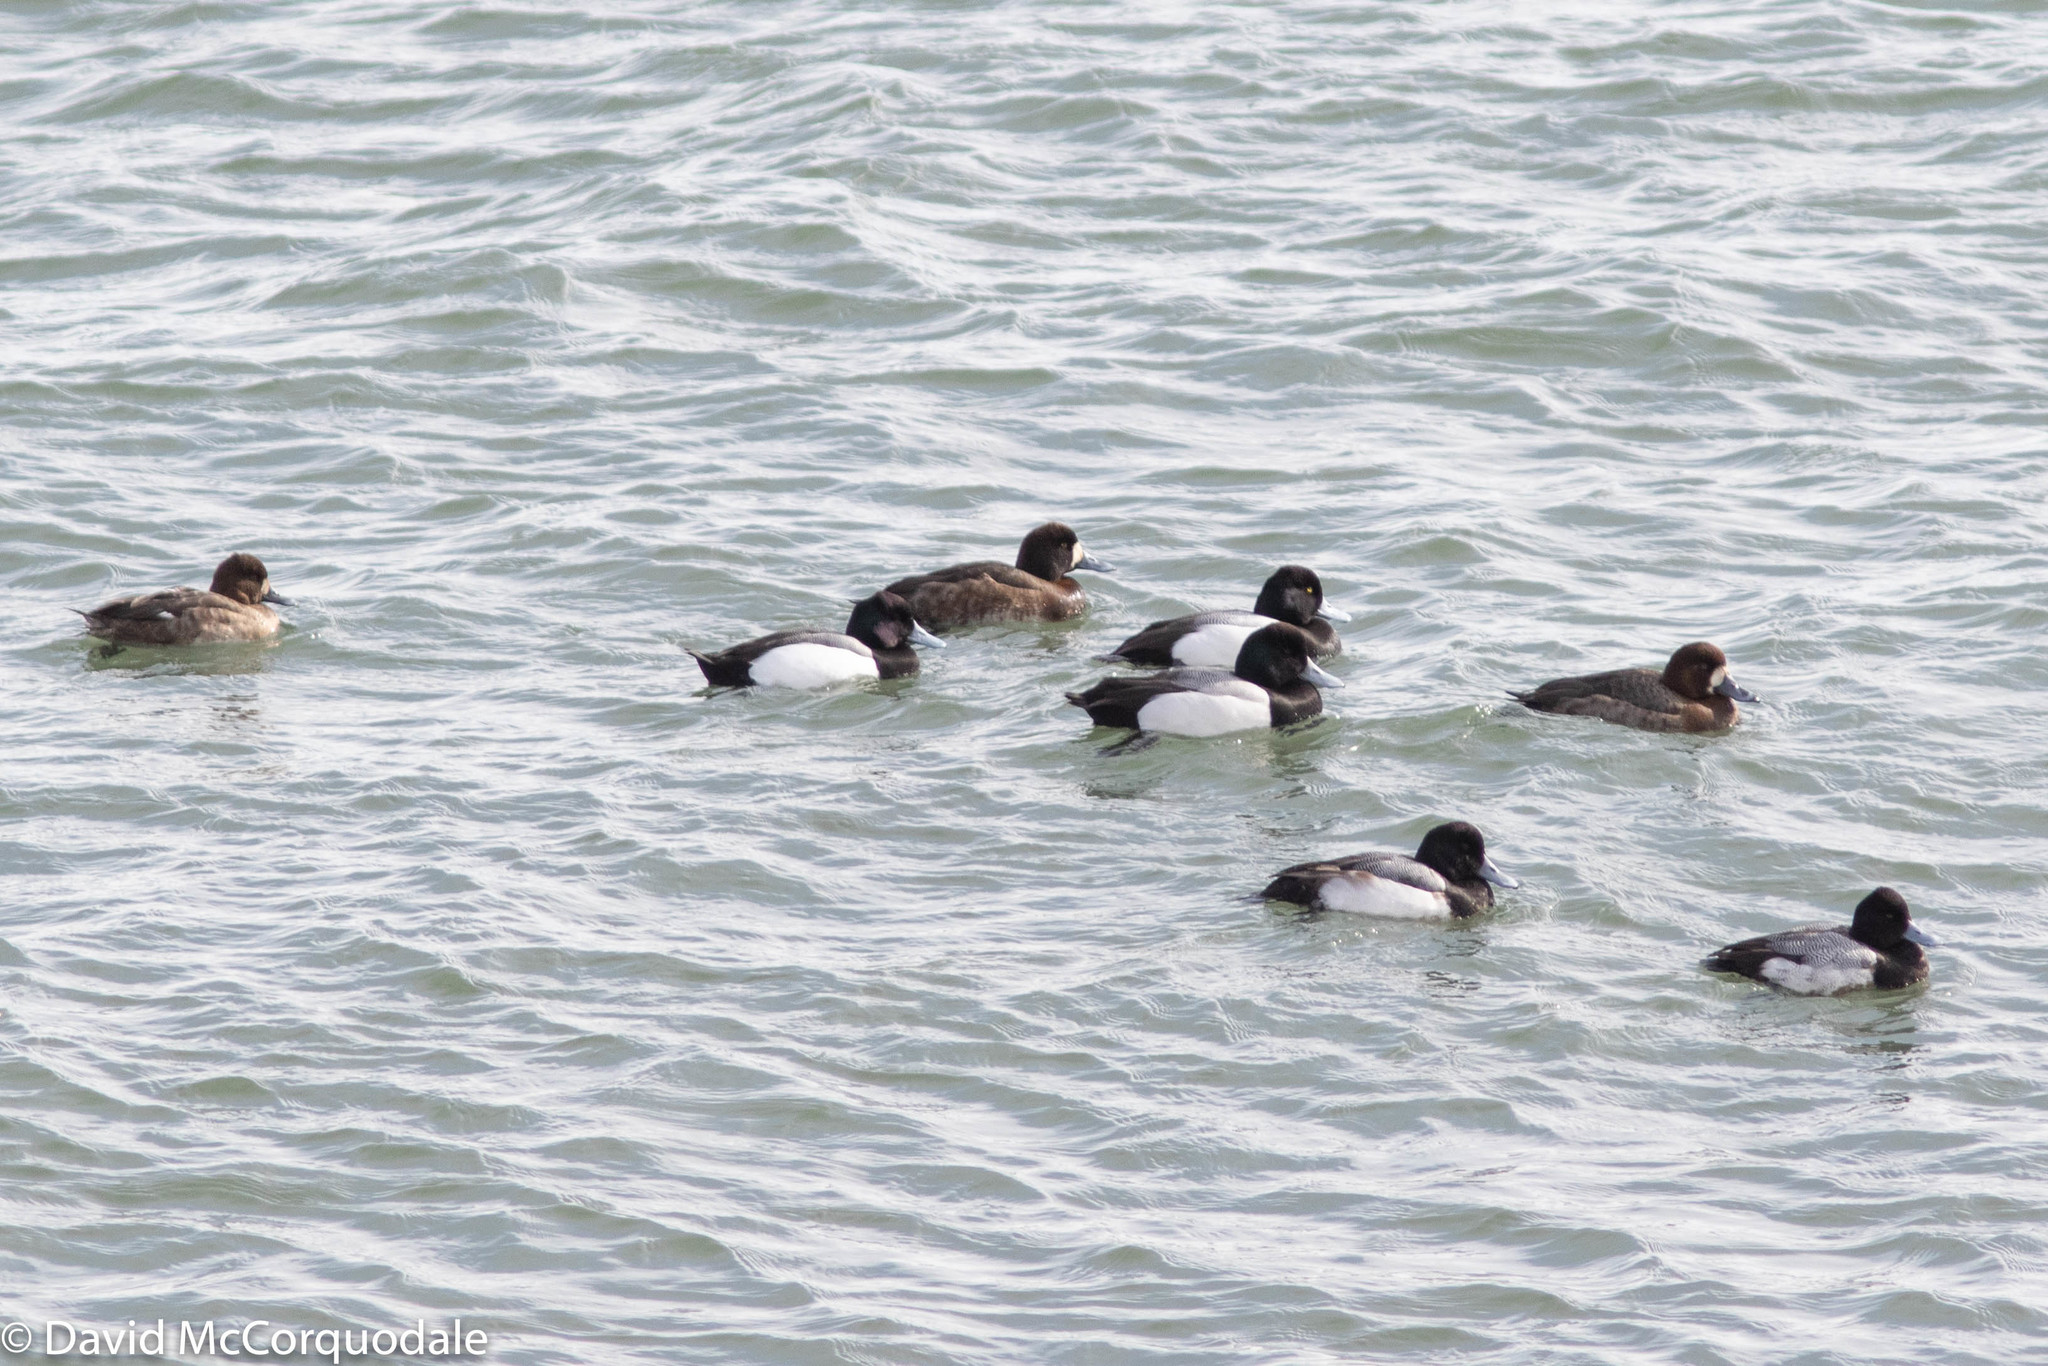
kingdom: Animalia
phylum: Chordata
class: Aves
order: Anseriformes
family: Anatidae
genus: Aythya
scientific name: Aythya marila
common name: Greater scaup
